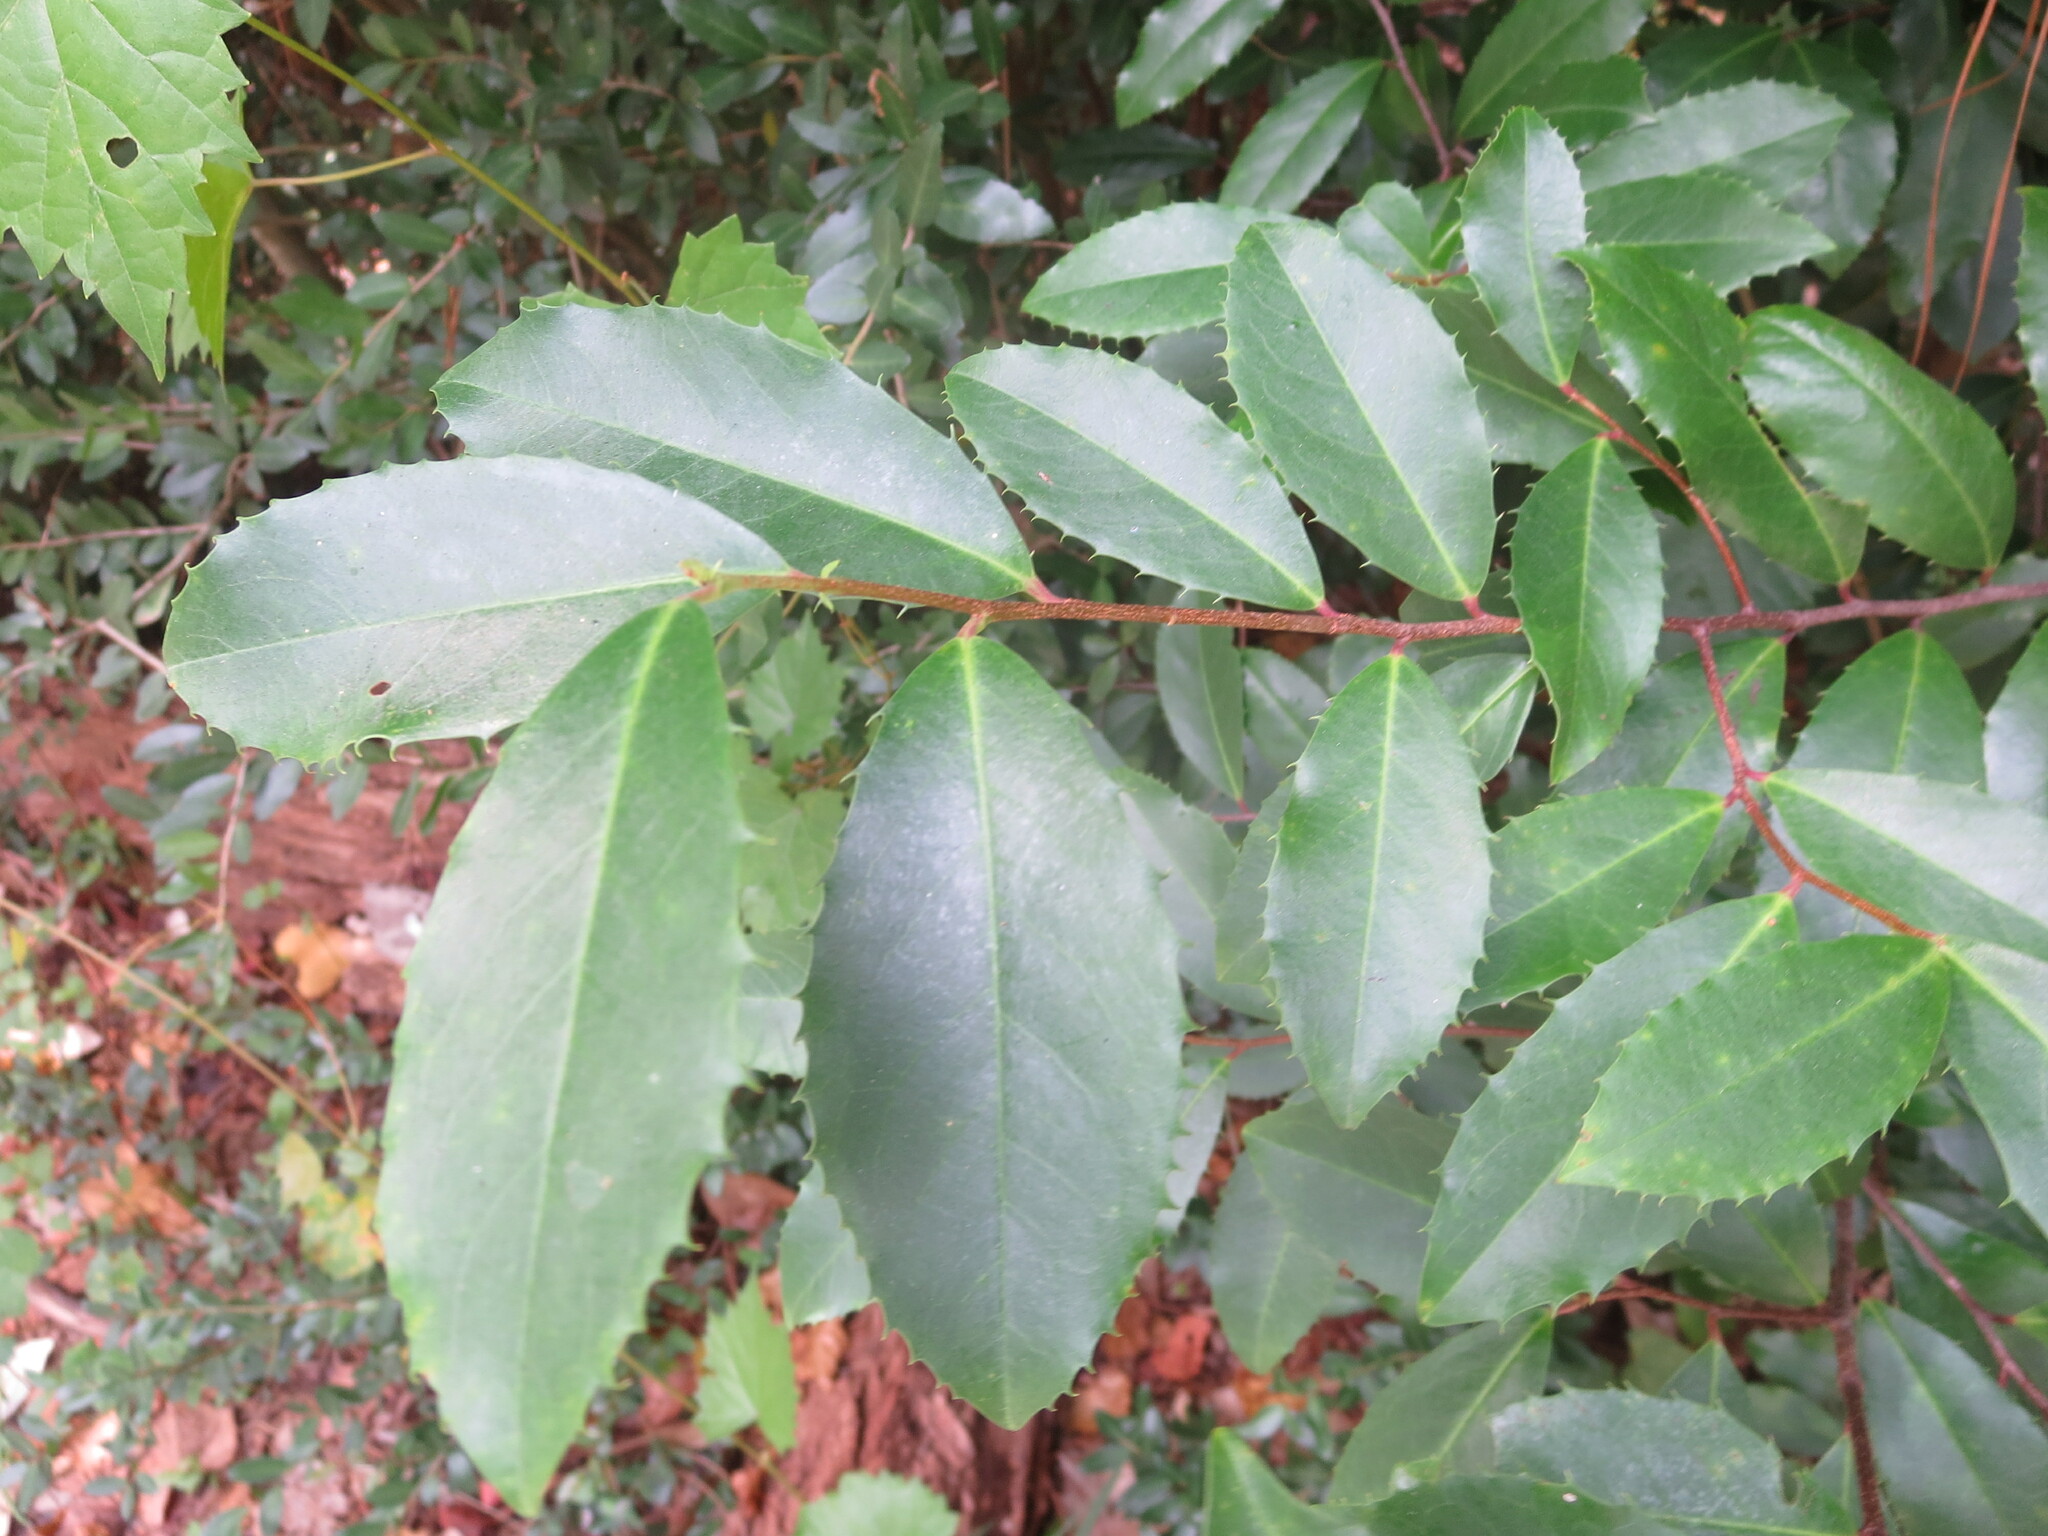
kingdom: Plantae
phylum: Tracheophyta
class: Magnoliopsida
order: Rosales
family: Rosaceae
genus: Prunus
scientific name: Prunus caroliniana
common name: Carolina laurel cherry
